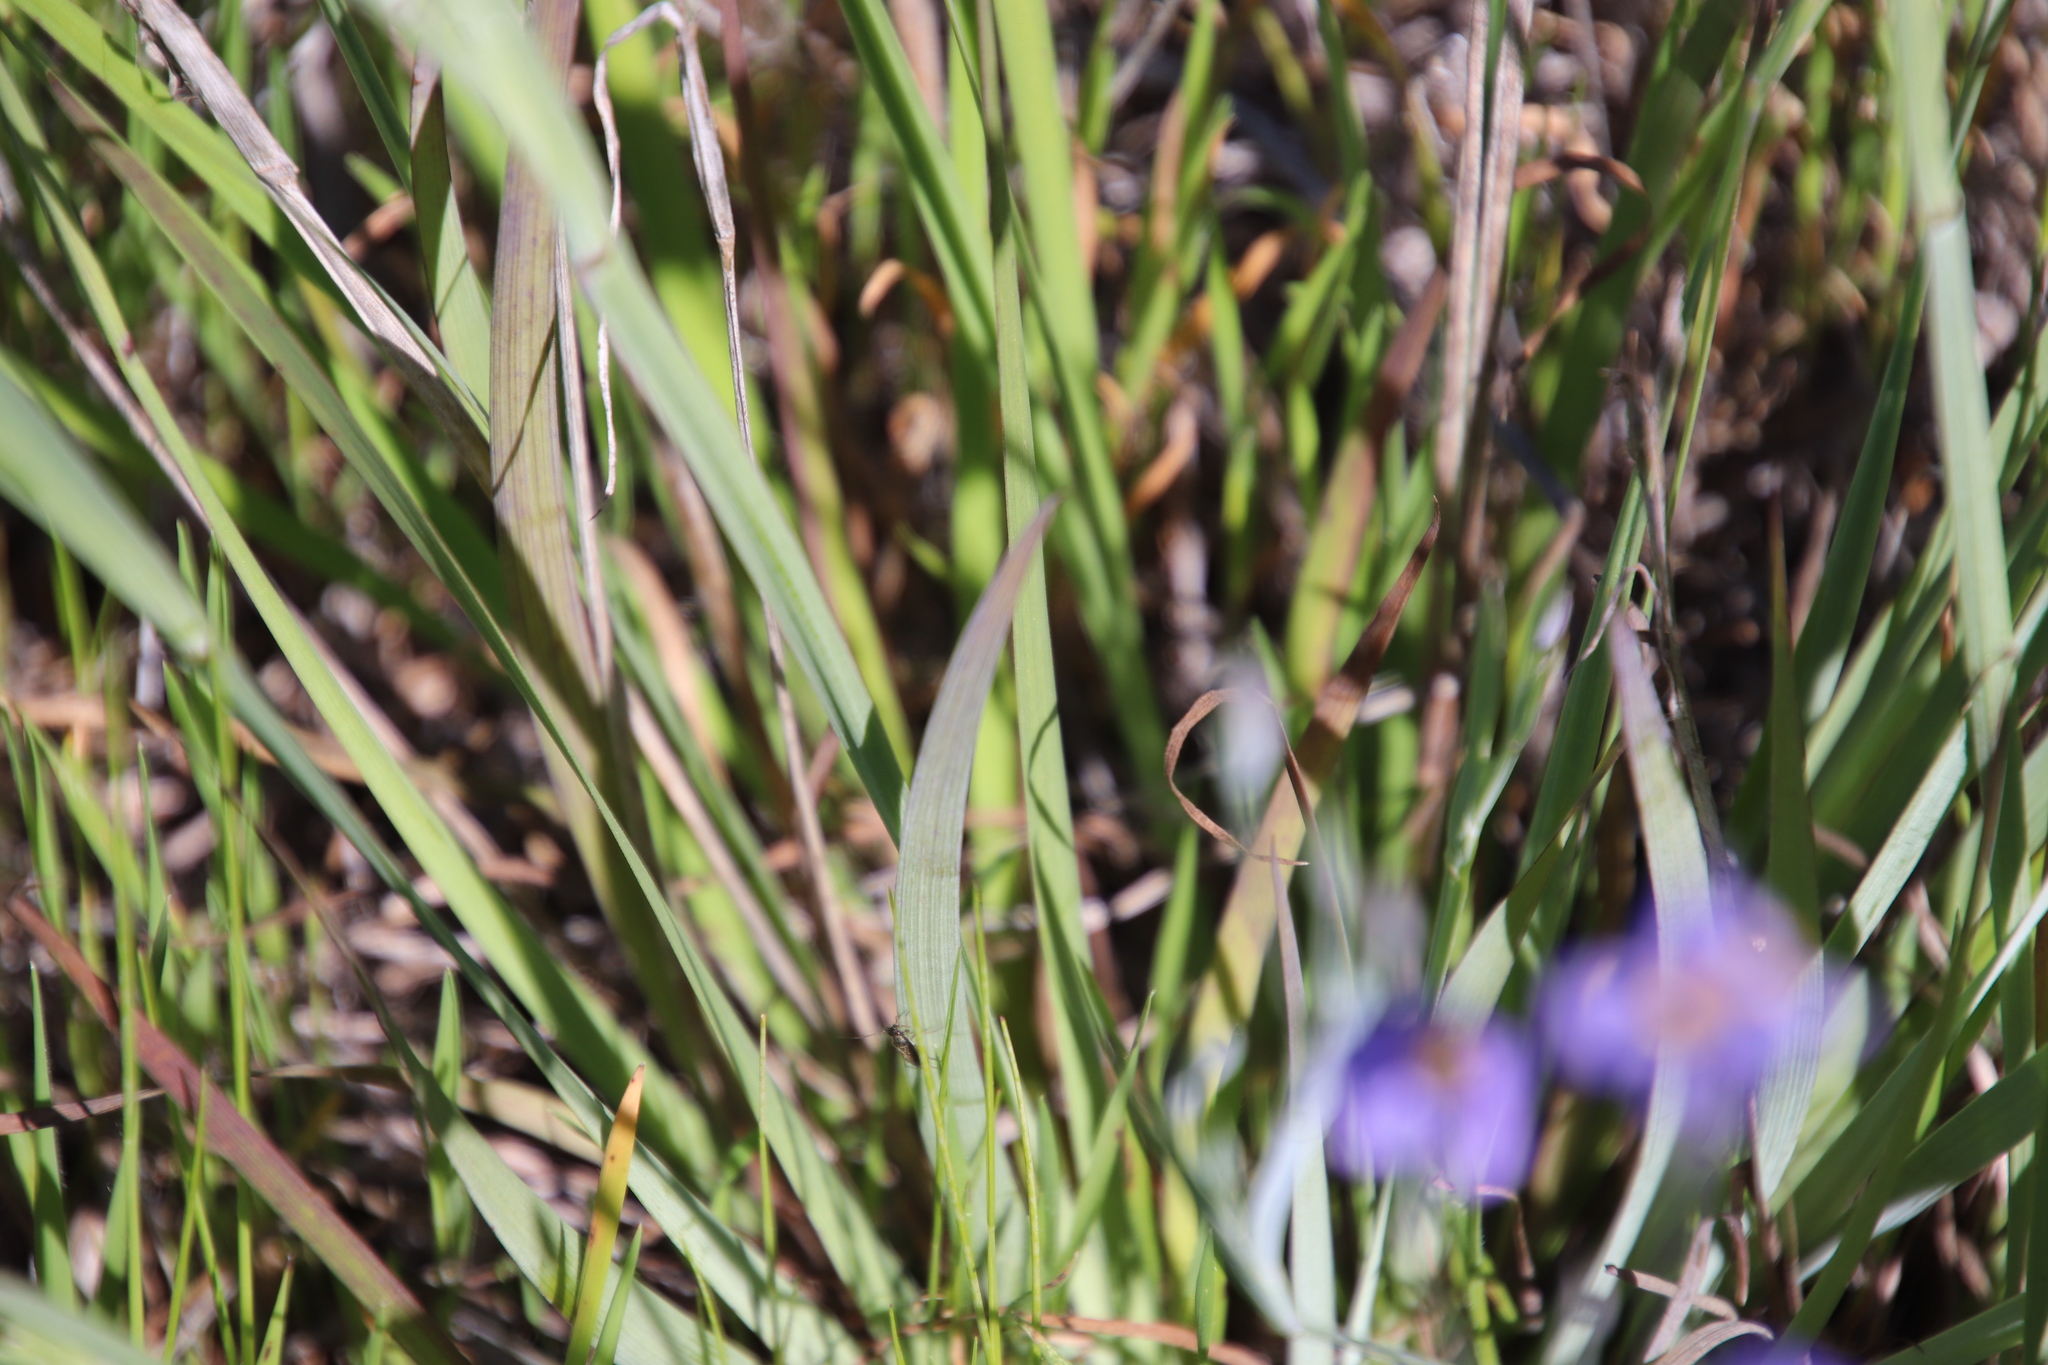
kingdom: Plantae
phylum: Tracheophyta
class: Liliopsida
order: Asparagales
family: Iridaceae
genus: Sisyrinchium
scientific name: Sisyrinchium bellum
